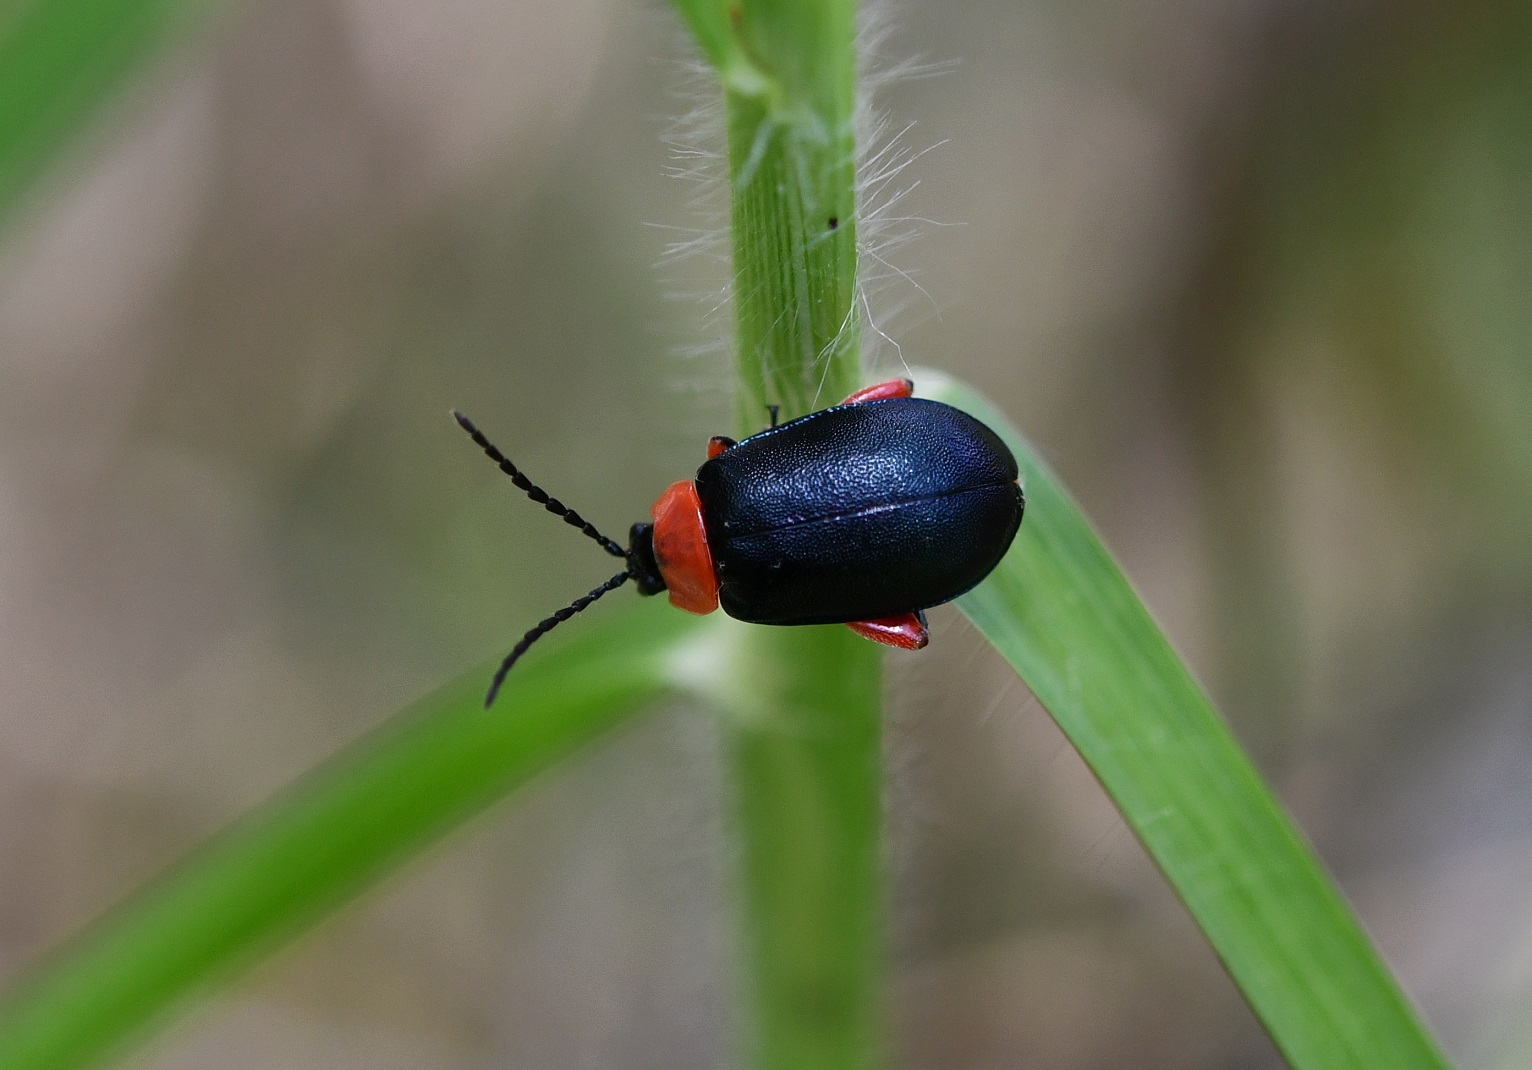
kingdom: Animalia
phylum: Arthropoda
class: Insecta
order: Coleoptera
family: Chrysomelidae
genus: Asphaera
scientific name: Asphaera abdominalis
